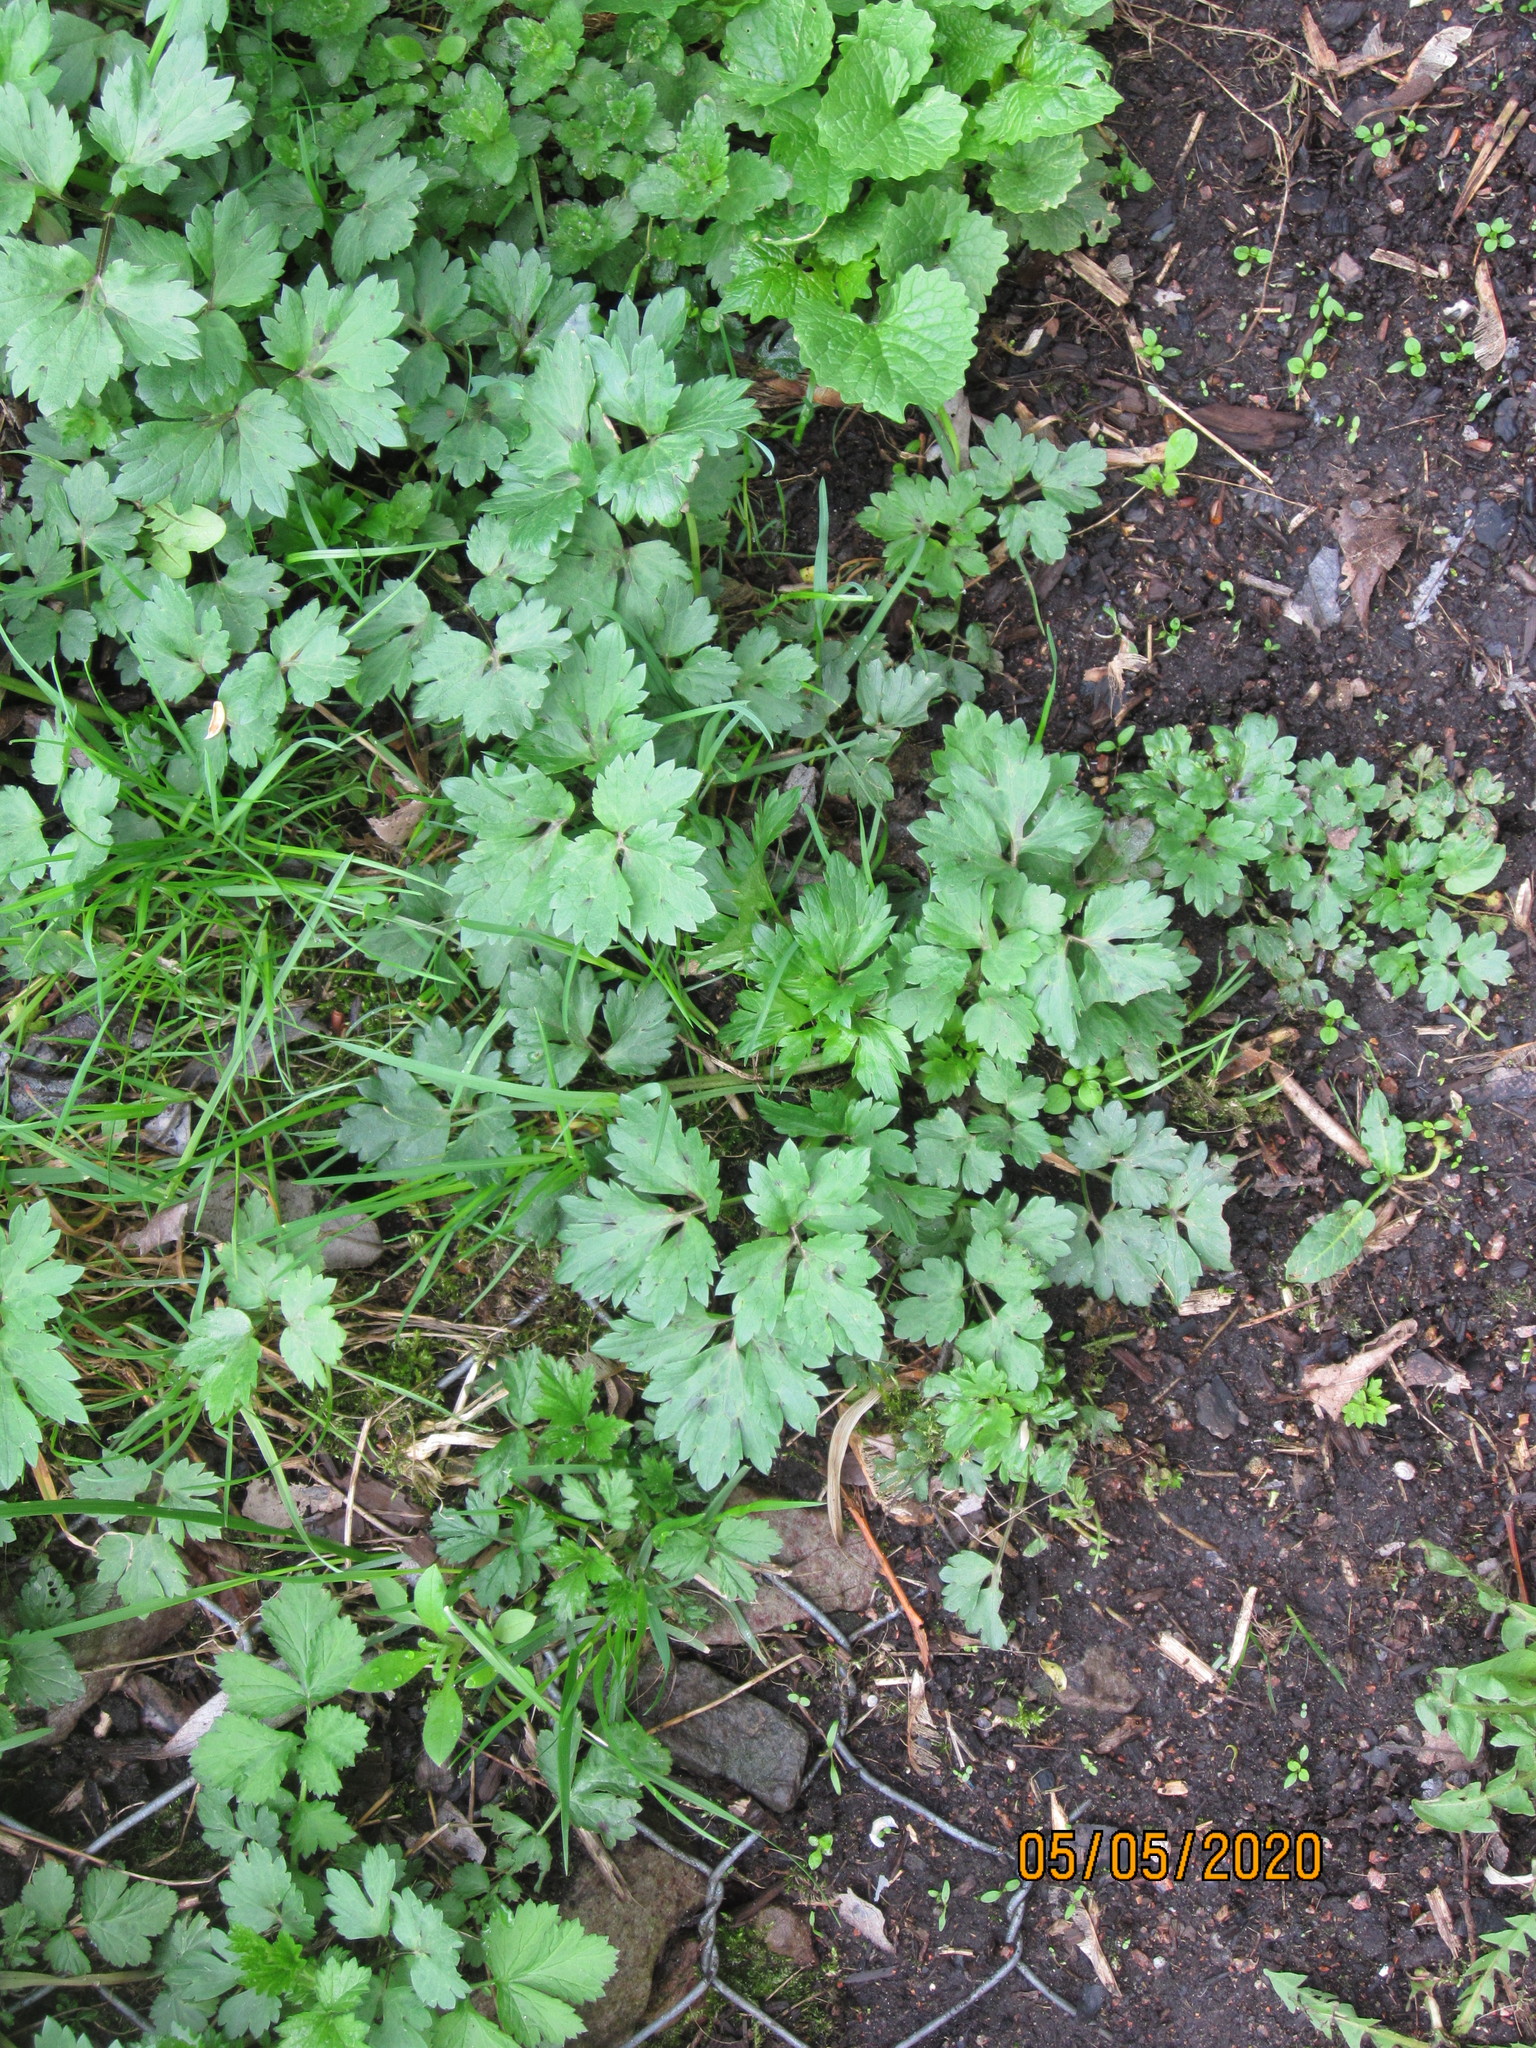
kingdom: Plantae
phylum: Tracheophyta
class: Magnoliopsida
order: Ranunculales
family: Ranunculaceae
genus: Ranunculus
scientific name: Ranunculus repens
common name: Creeping buttercup
